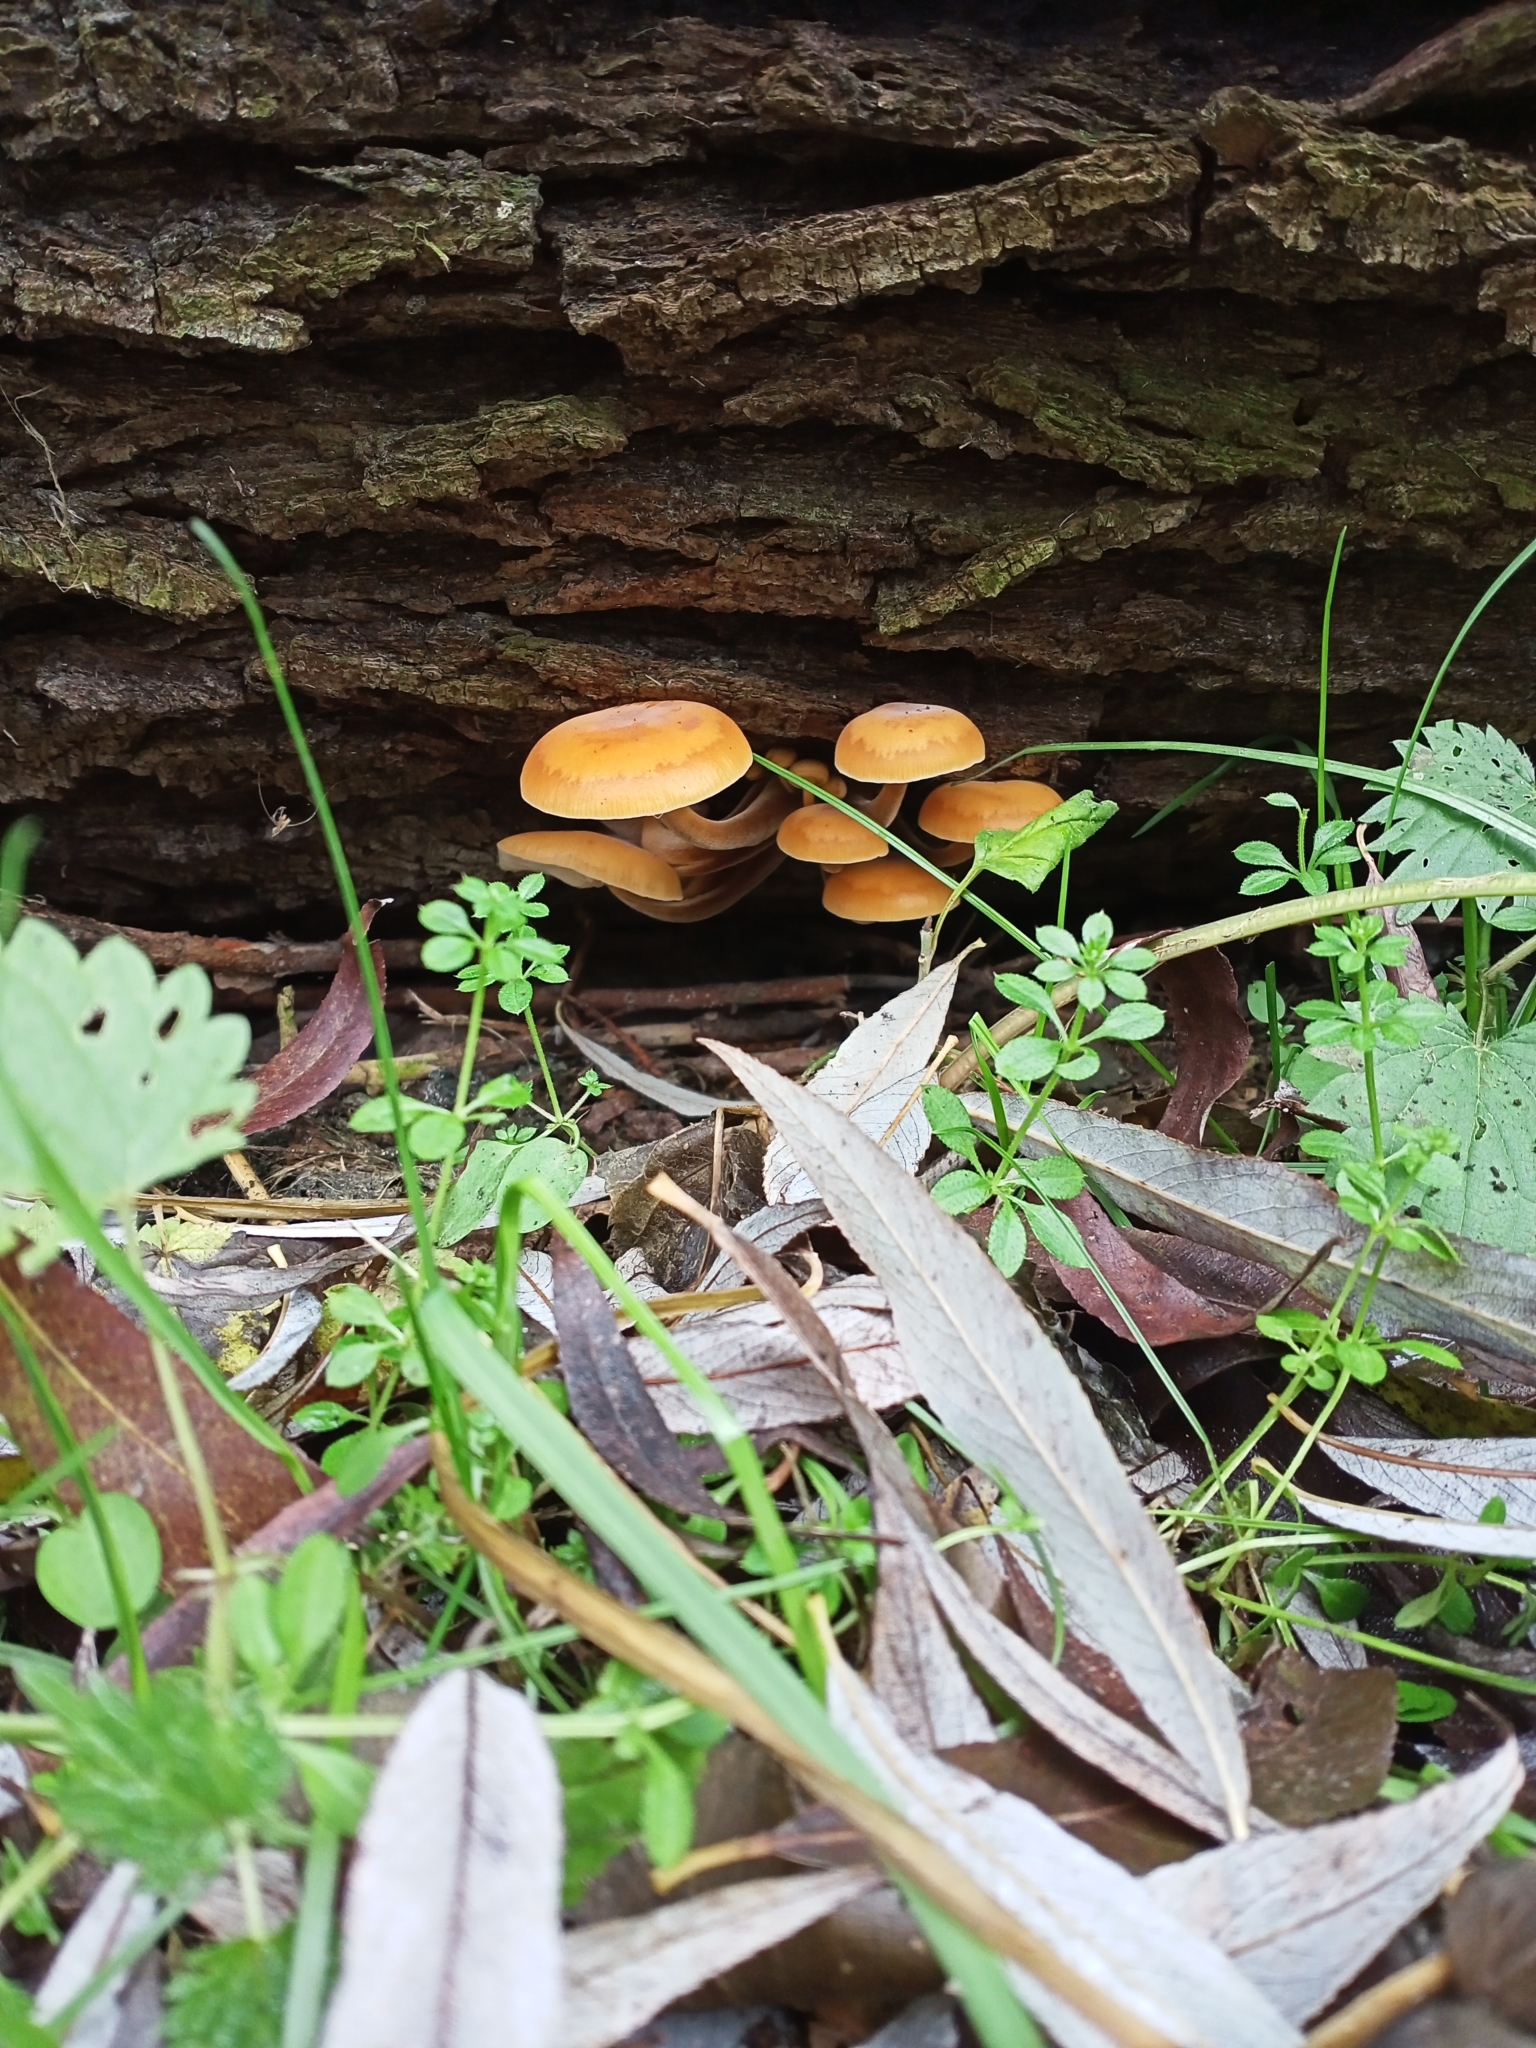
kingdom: Fungi
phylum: Basidiomycota
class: Agaricomycetes
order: Agaricales
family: Physalacriaceae
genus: Flammulina
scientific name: Flammulina
